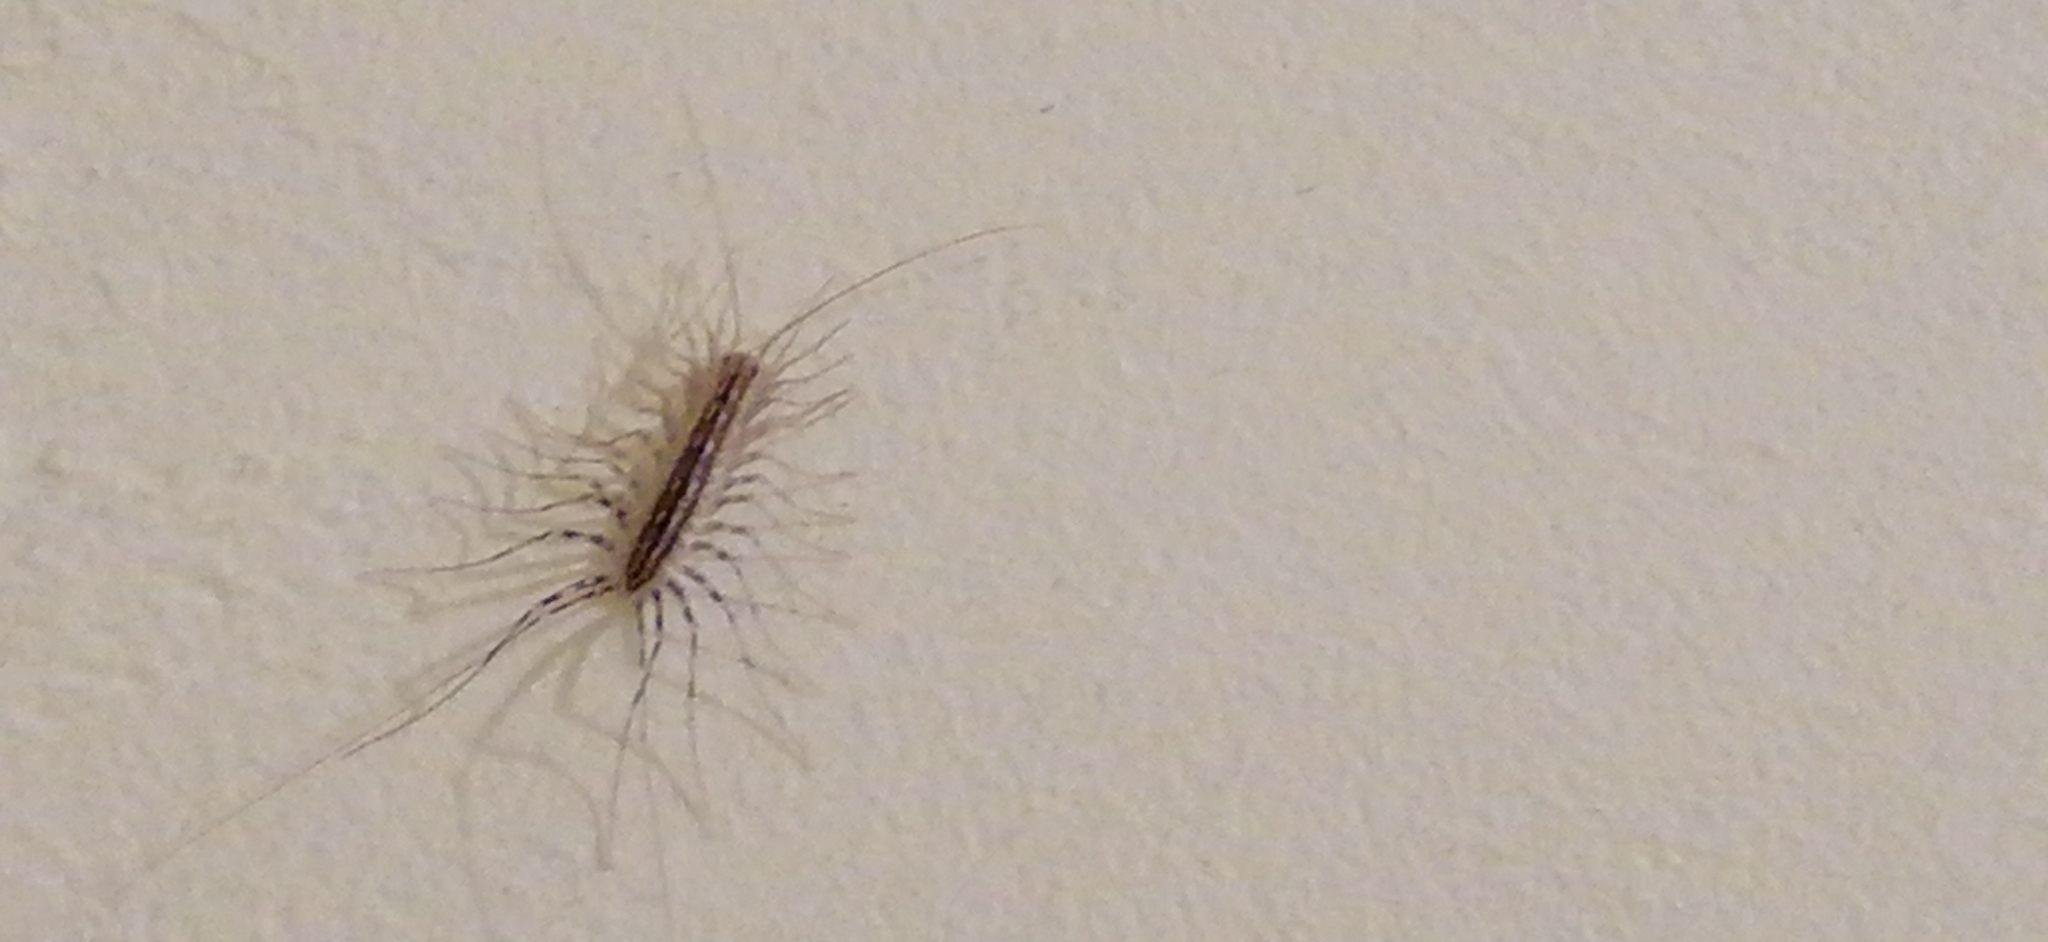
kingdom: Animalia
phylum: Arthropoda
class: Chilopoda
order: Scutigeromorpha
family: Scutigeridae
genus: Scutigera
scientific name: Scutigera coleoptrata
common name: House centipede
